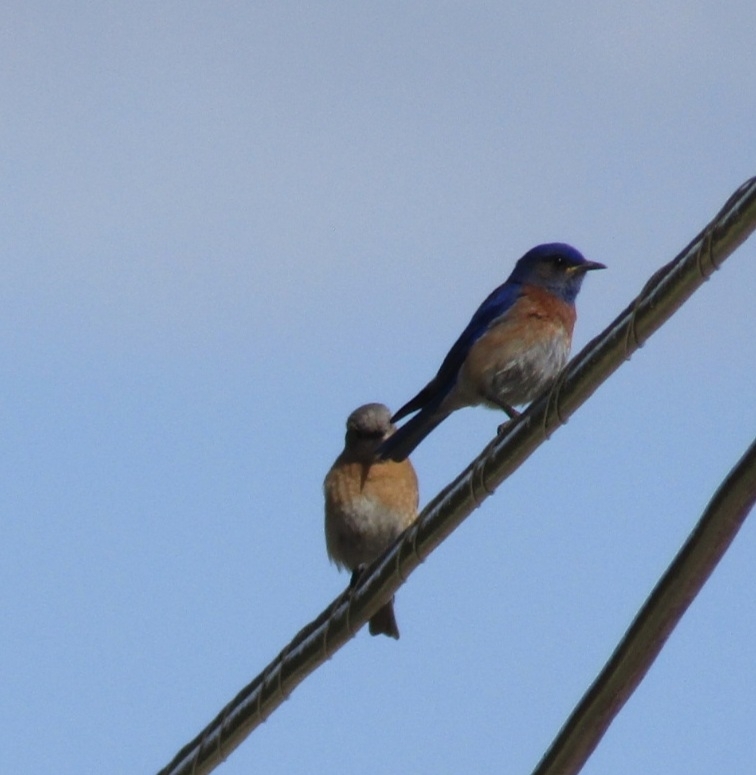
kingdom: Animalia
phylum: Chordata
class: Aves
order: Passeriformes
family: Turdidae
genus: Sialia
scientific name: Sialia mexicana
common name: Western bluebird
